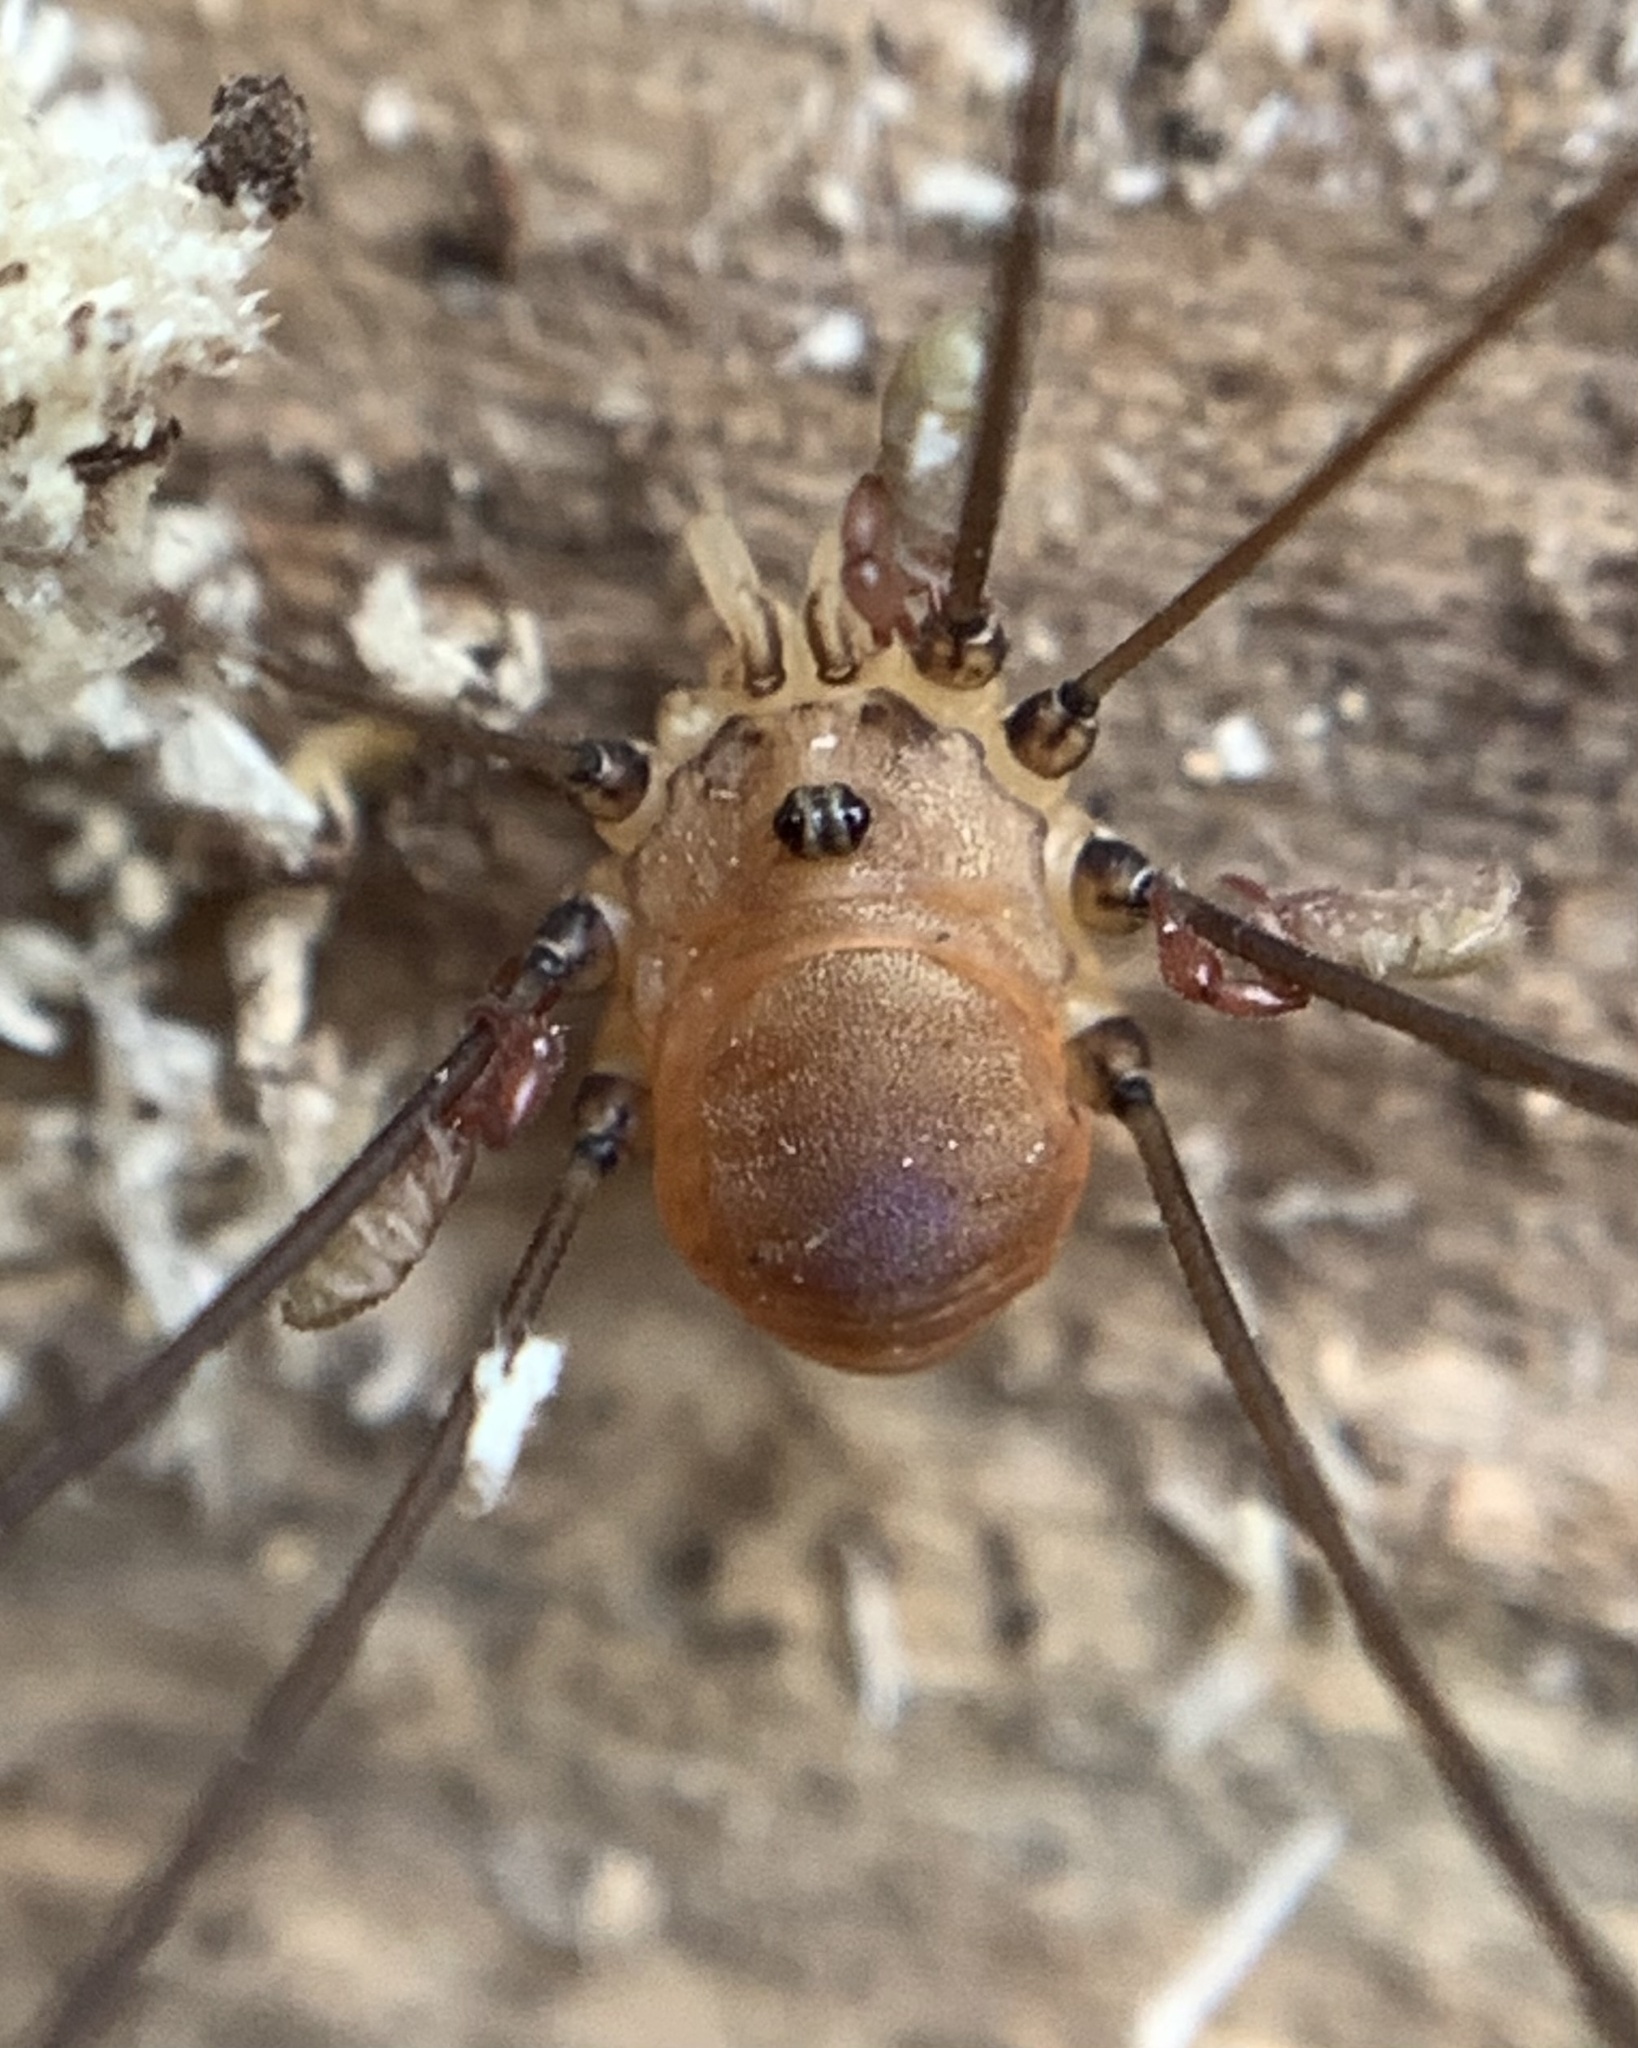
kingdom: Animalia
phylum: Arthropoda
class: Arachnida
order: Opiliones
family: Sclerosomatidae
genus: Leiobunum
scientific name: Leiobunum blackwalli
